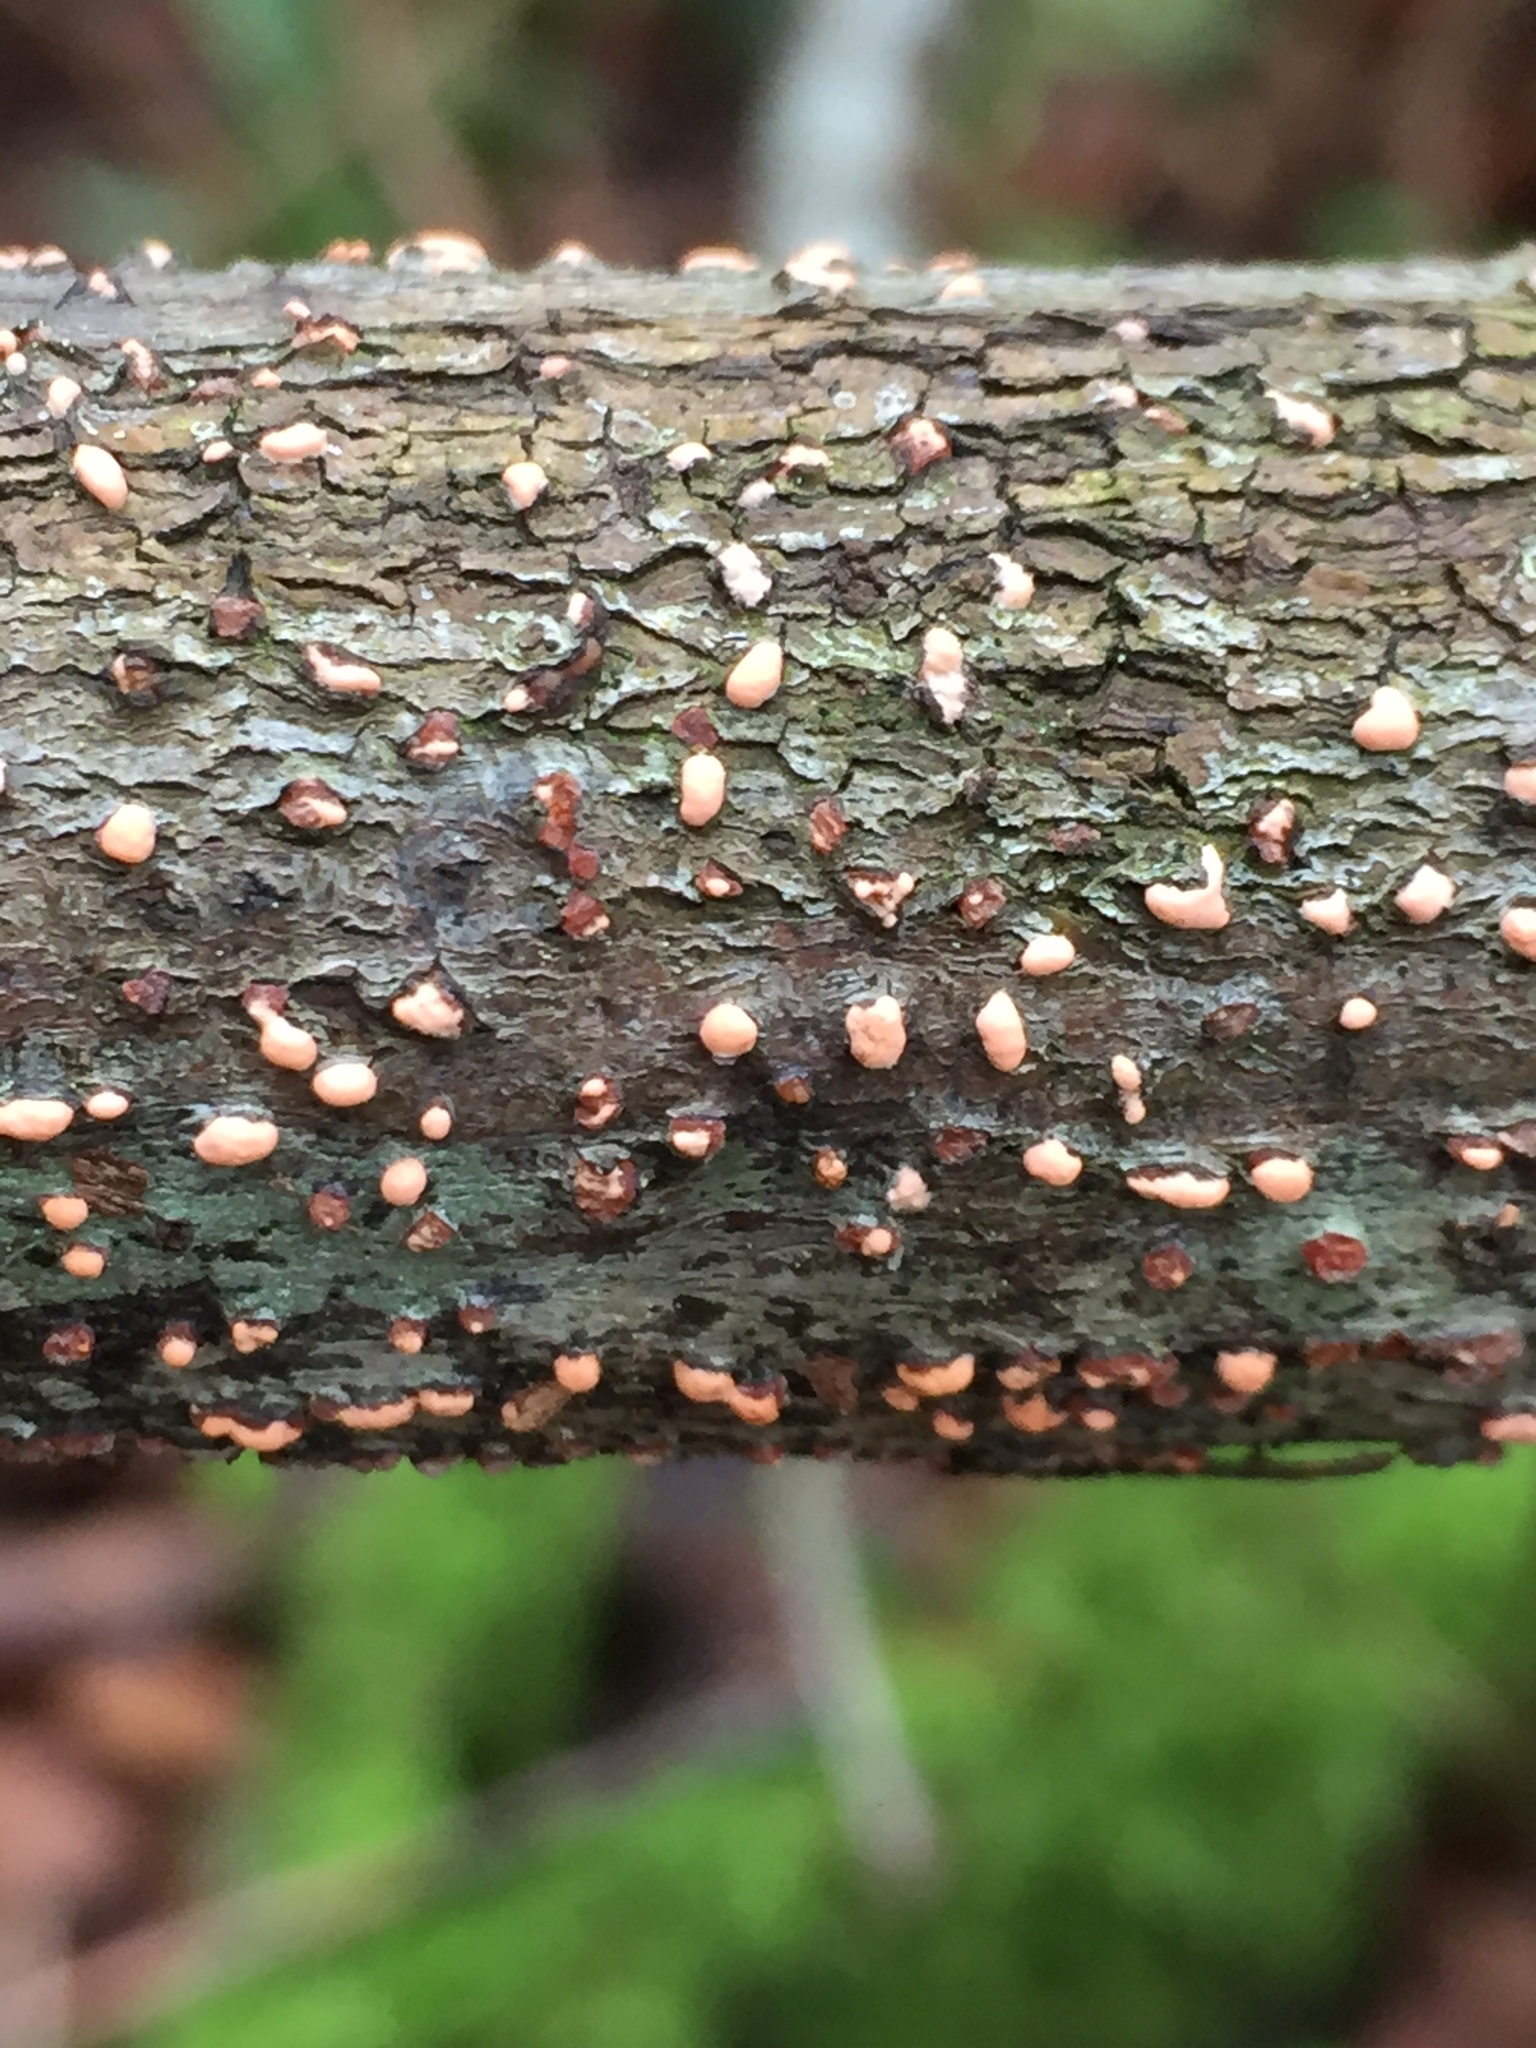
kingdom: Fungi
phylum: Ascomycota
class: Sordariomycetes
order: Hypocreales
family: Nectriaceae
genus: Nectria
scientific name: Nectria cinnabarina
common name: Coral spot
